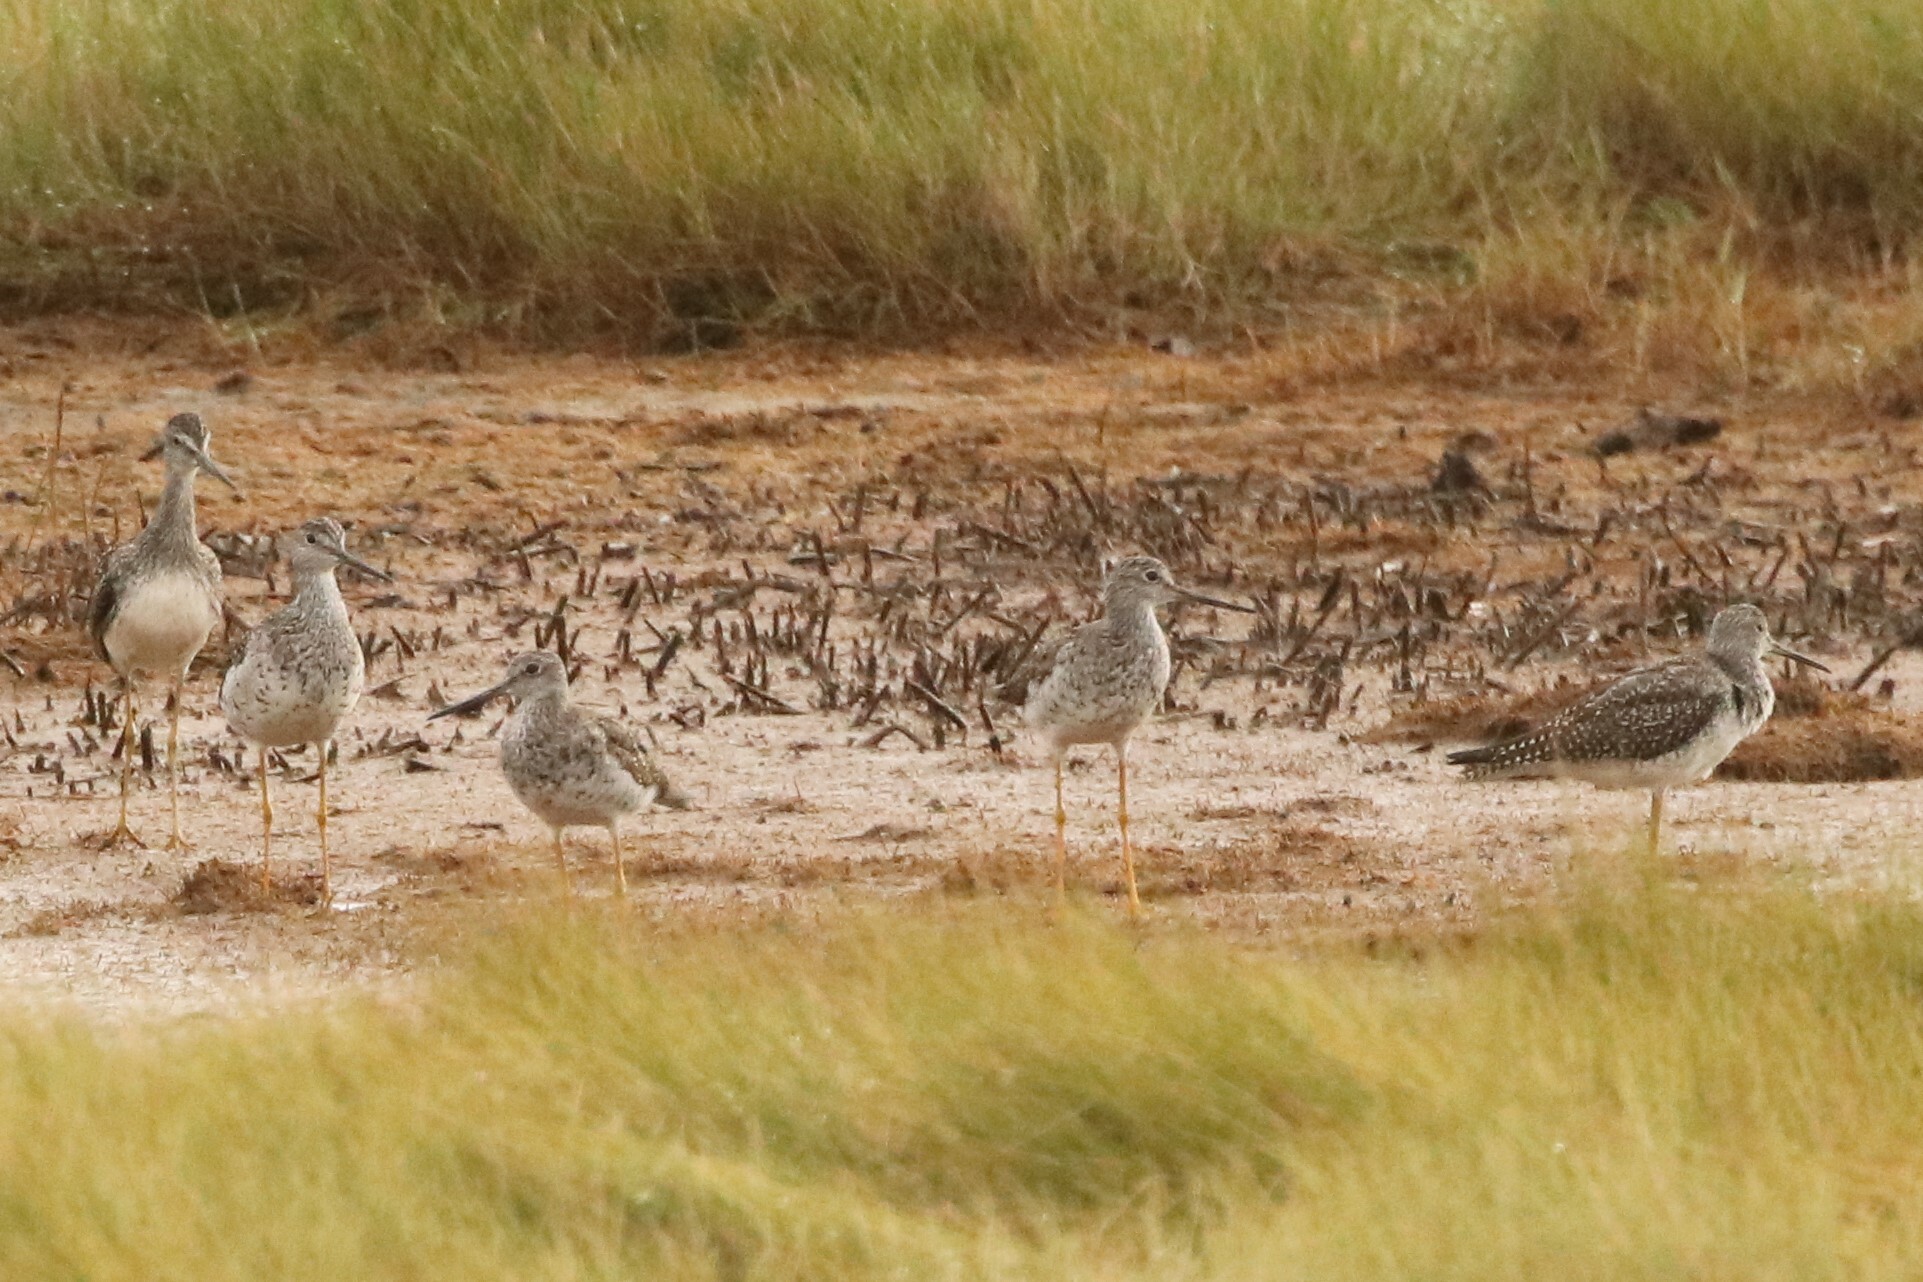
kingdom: Animalia
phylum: Chordata
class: Aves
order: Charadriiformes
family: Scolopacidae
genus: Tringa
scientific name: Tringa melanoleuca
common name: Greater yellowlegs
